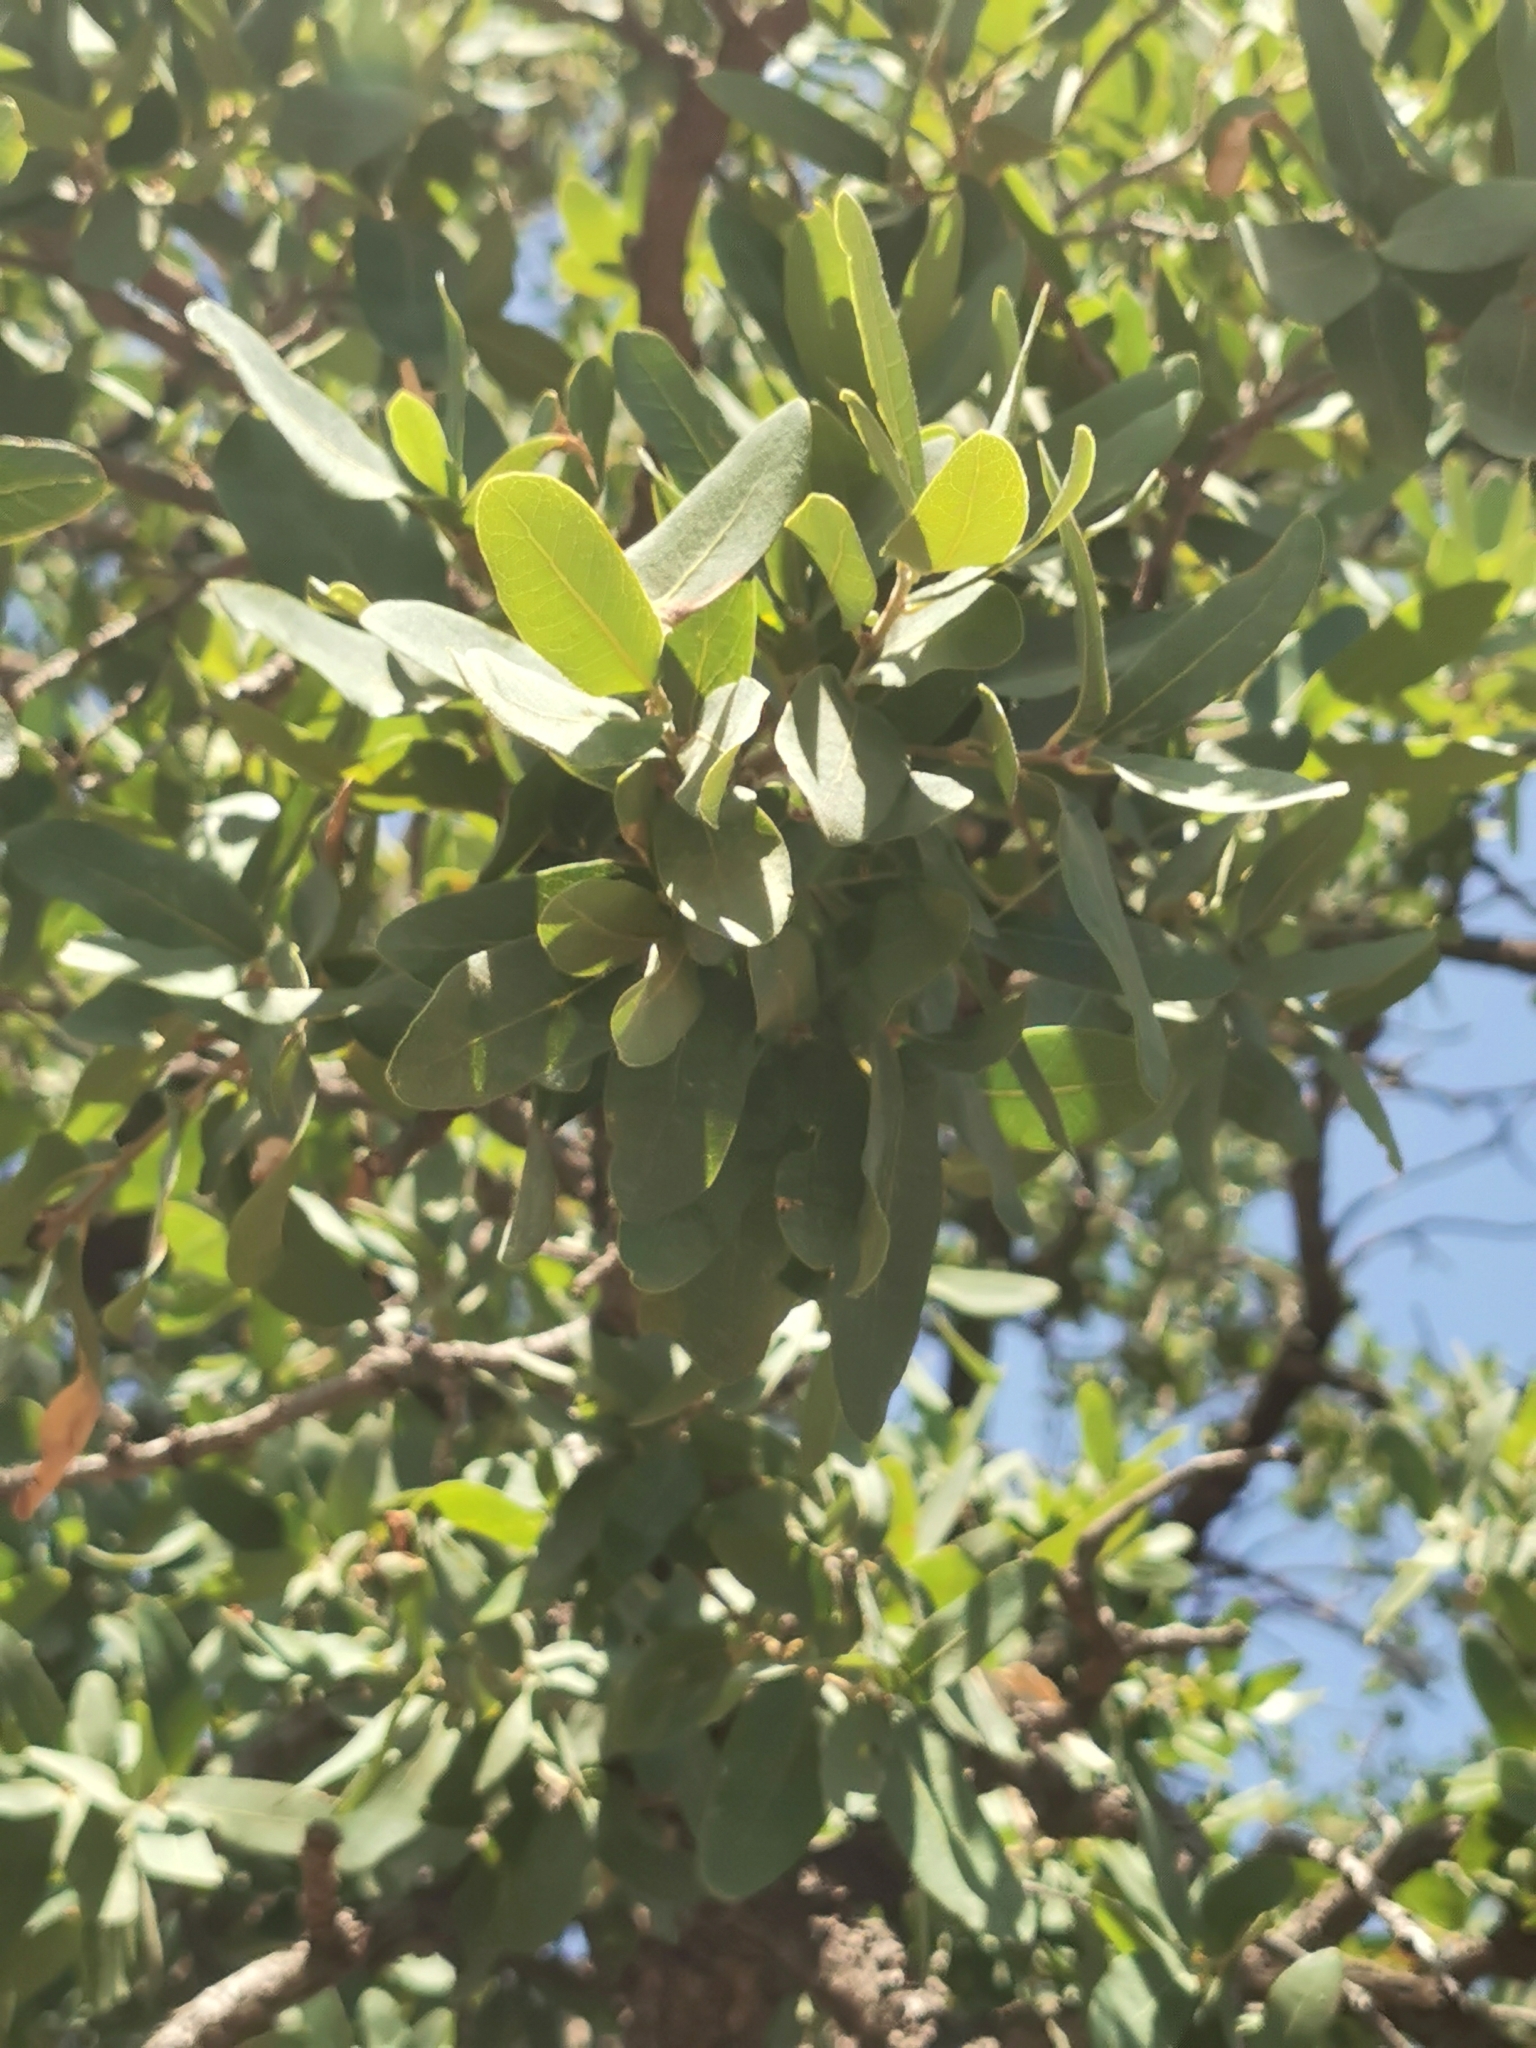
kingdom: Plantae
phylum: Tracheophyta
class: Magnoliopsida
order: Fagales
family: Fagaceae
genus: Quercus
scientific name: Quercus oblongifolia
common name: Mexican blue oak
